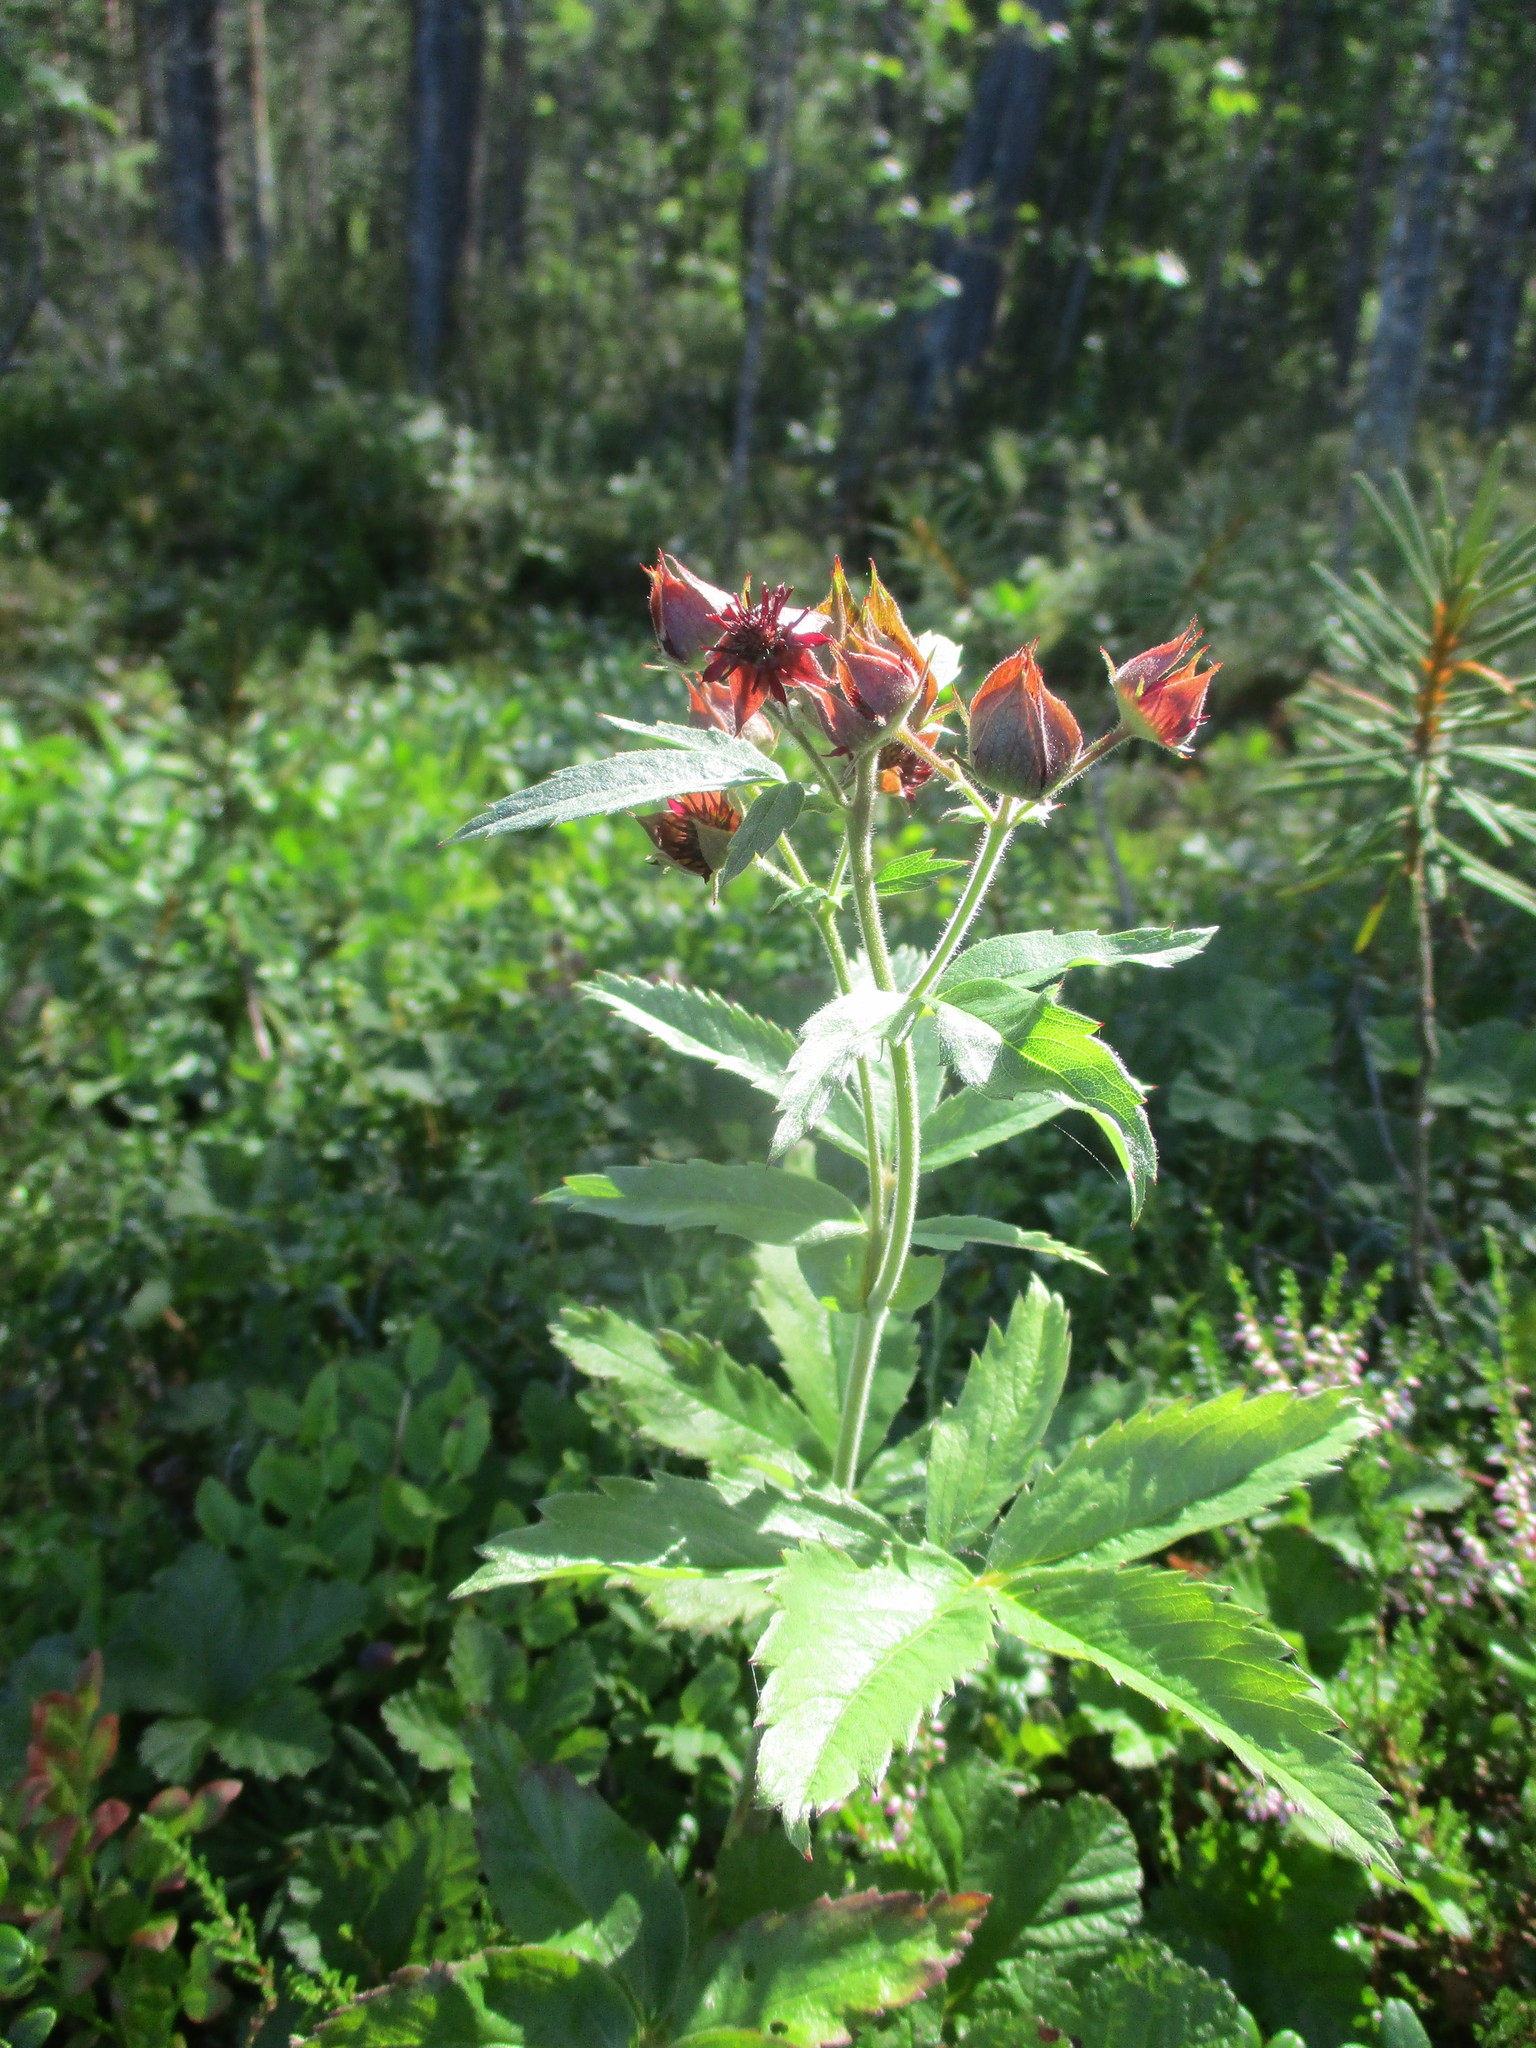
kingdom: Plantae
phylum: Tracheophyta
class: Magnoliopsida
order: Rosales
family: Rosaceae
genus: Comarum
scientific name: Comarum palustre
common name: Marsh cinquefoil
